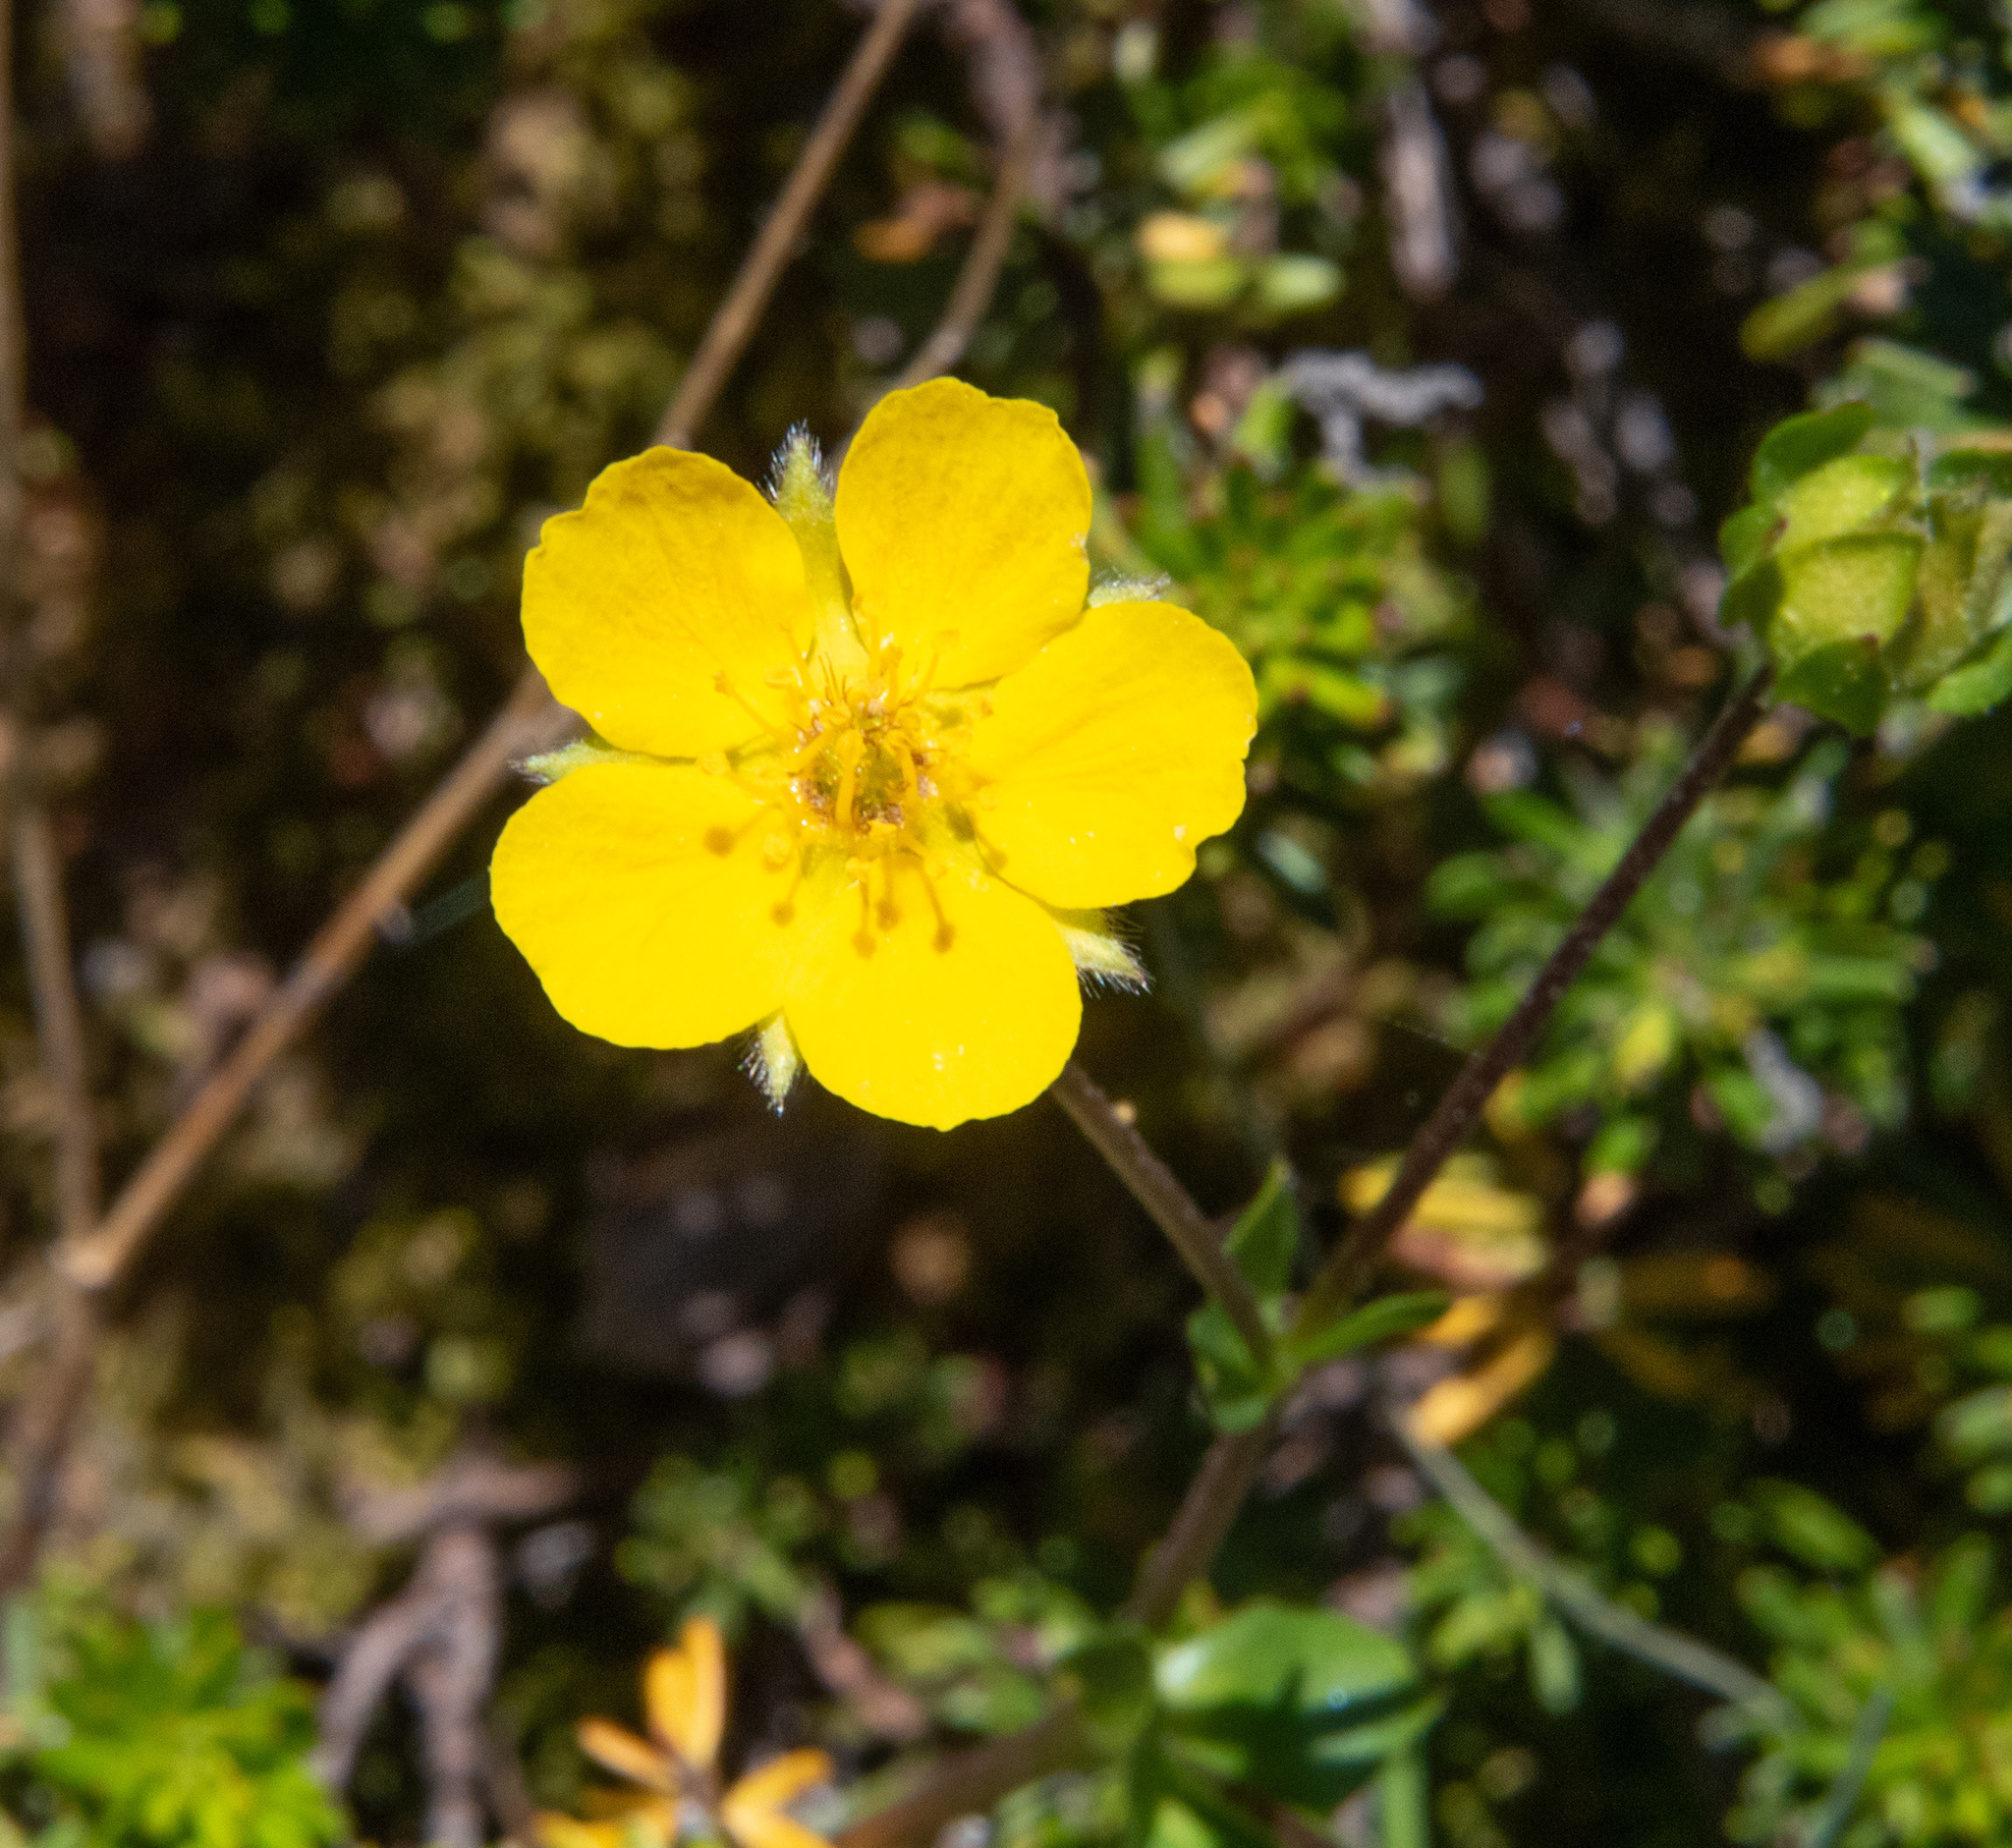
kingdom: Plantae
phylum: Tracheophyta
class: Magnoliopsida
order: Rosales
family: Rosaceae
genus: Dasiphora
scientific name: Dasiphora fruticosa
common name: Shrubby cinquefoil
